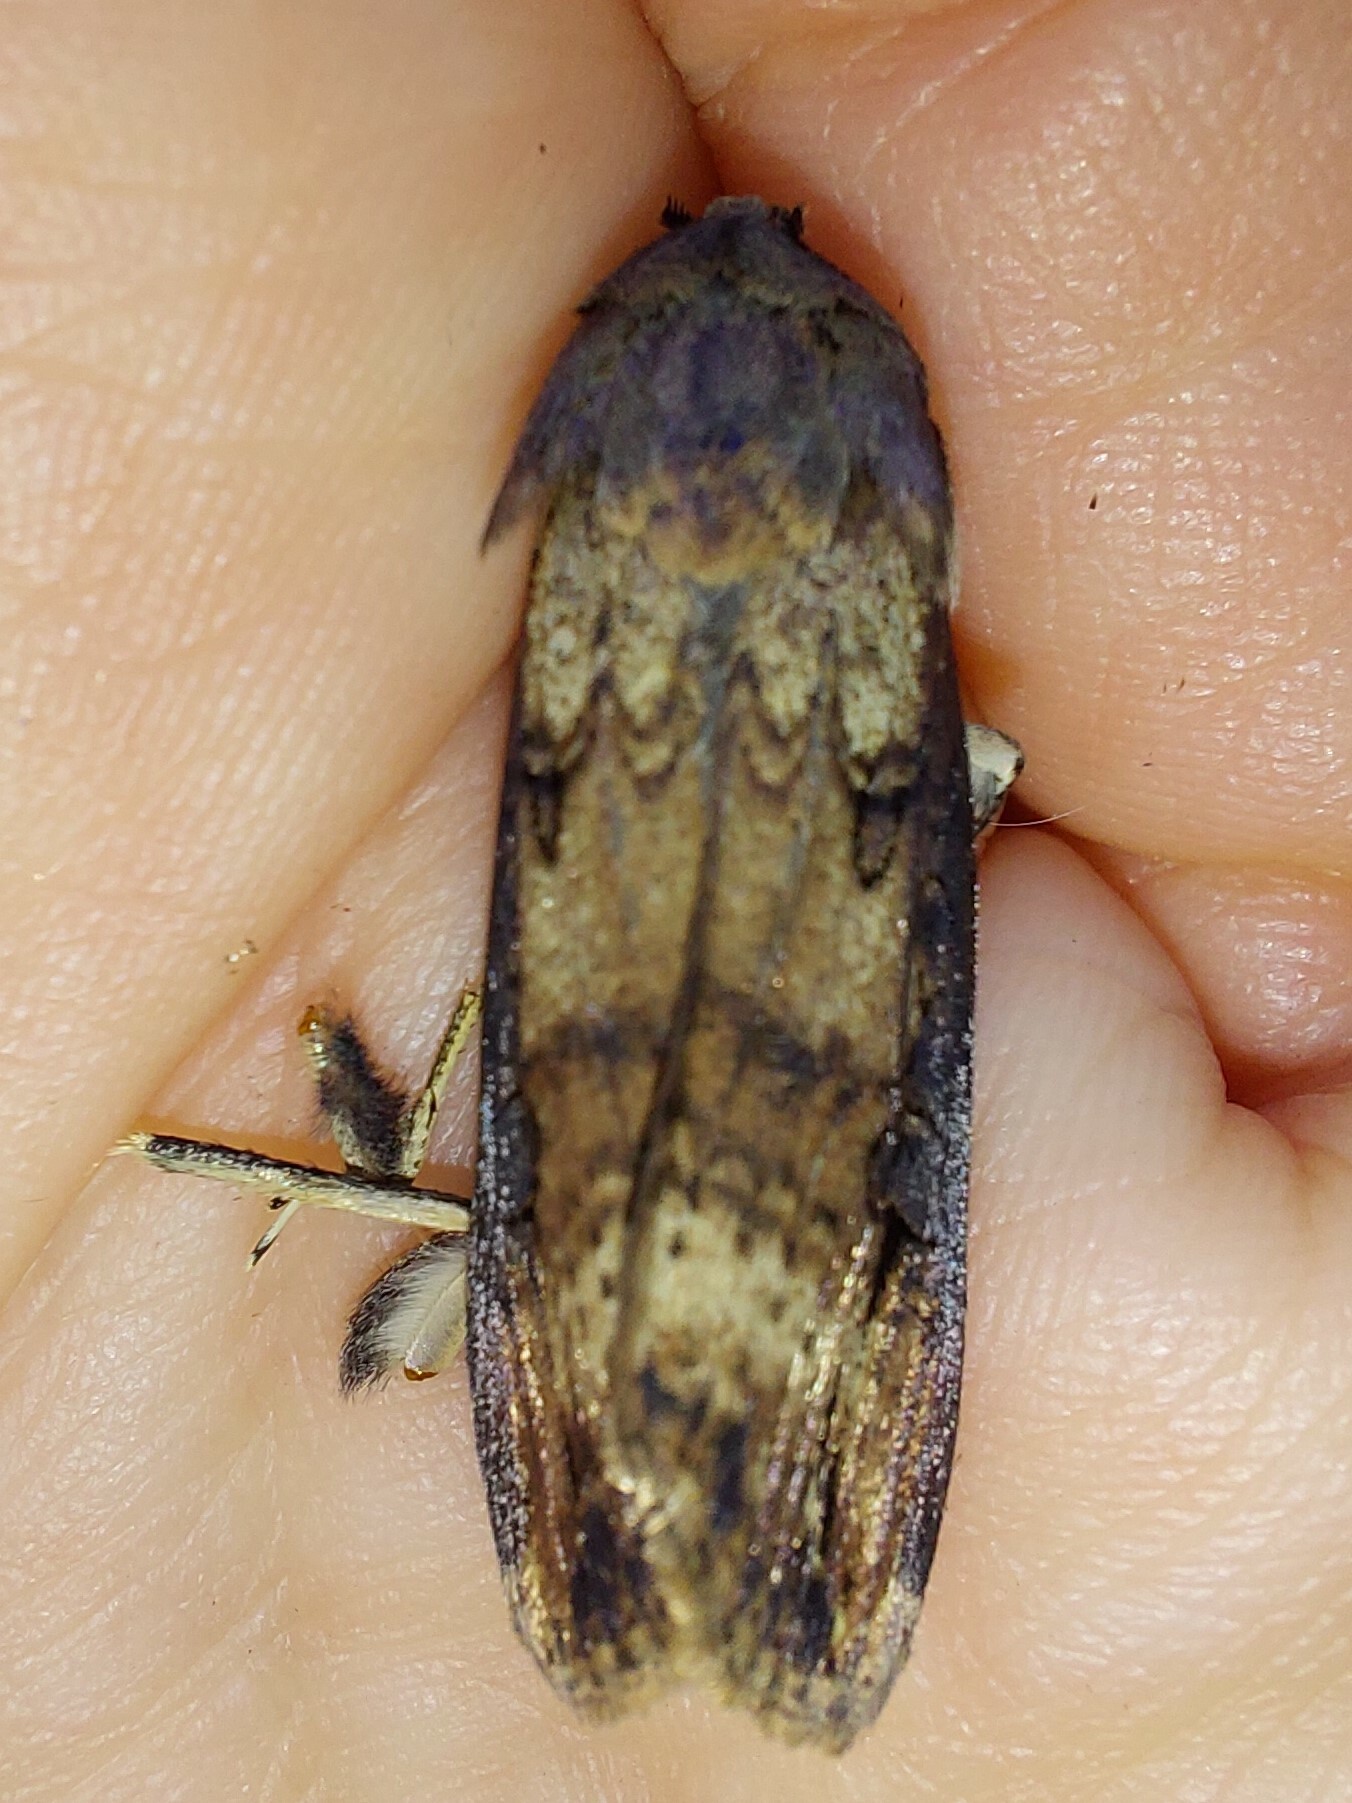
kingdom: Animalia
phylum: Arthropoda
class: Insecta
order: Lepidoptera
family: Noctuidae
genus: Agrotis
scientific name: Agrotis ipsilon
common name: Dark sword-grass
